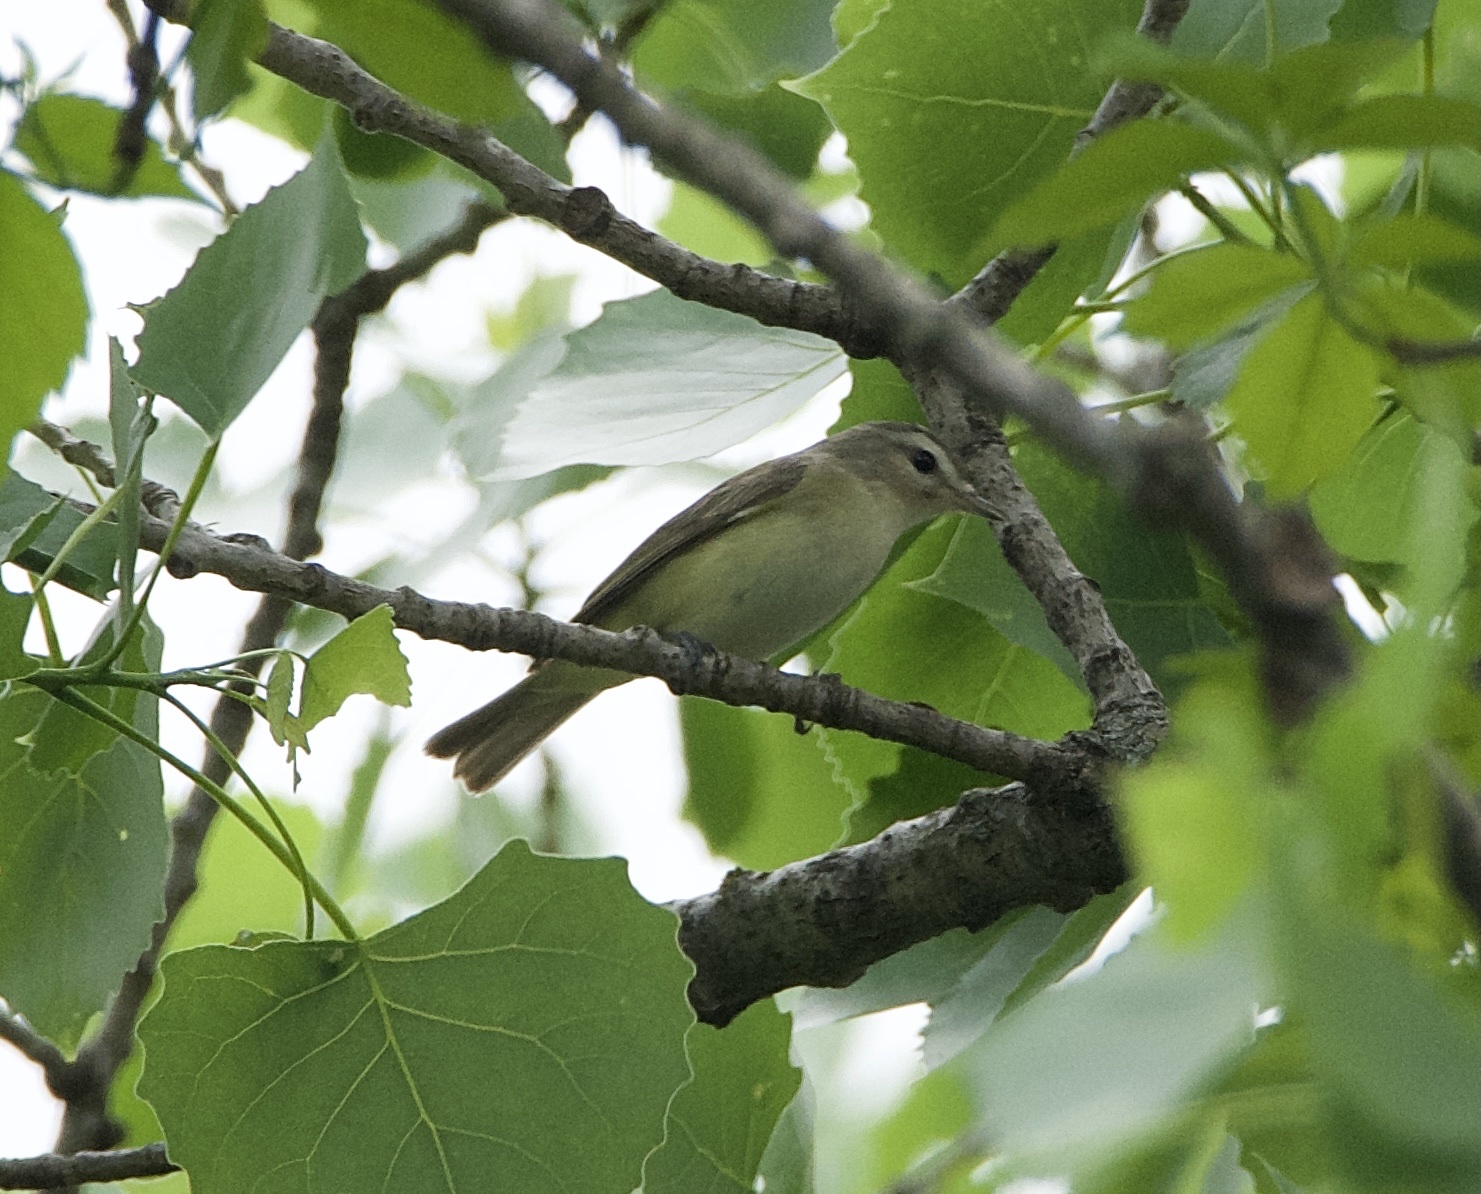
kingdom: Animalia
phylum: Chordata
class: Aves
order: Passeriformes
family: Vireonidae
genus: Vireo
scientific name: Vireo gilvus
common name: Warbling vireo
